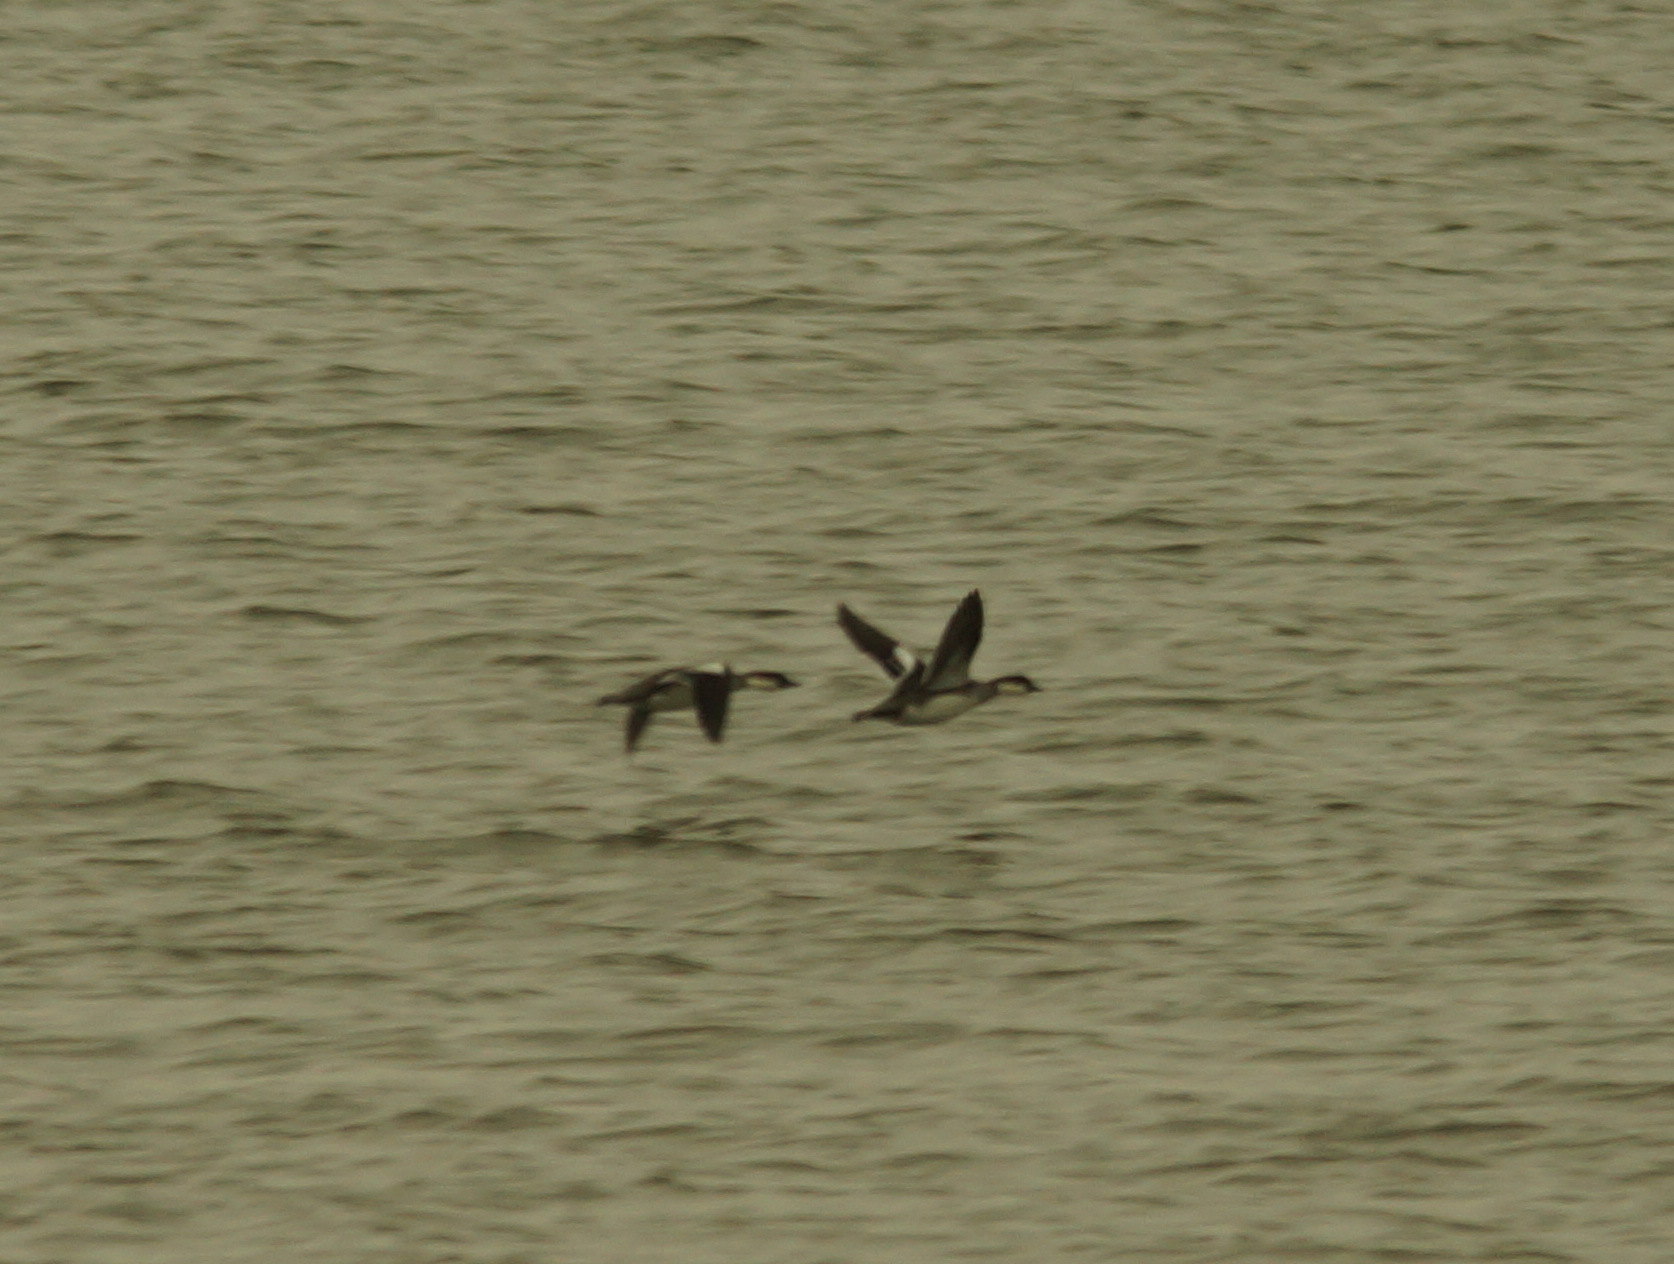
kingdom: Animalia
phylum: Chordata
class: Aves
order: Anseriformes
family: Anatidae
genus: Mergellus
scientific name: Mergellus albellus
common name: Smew
